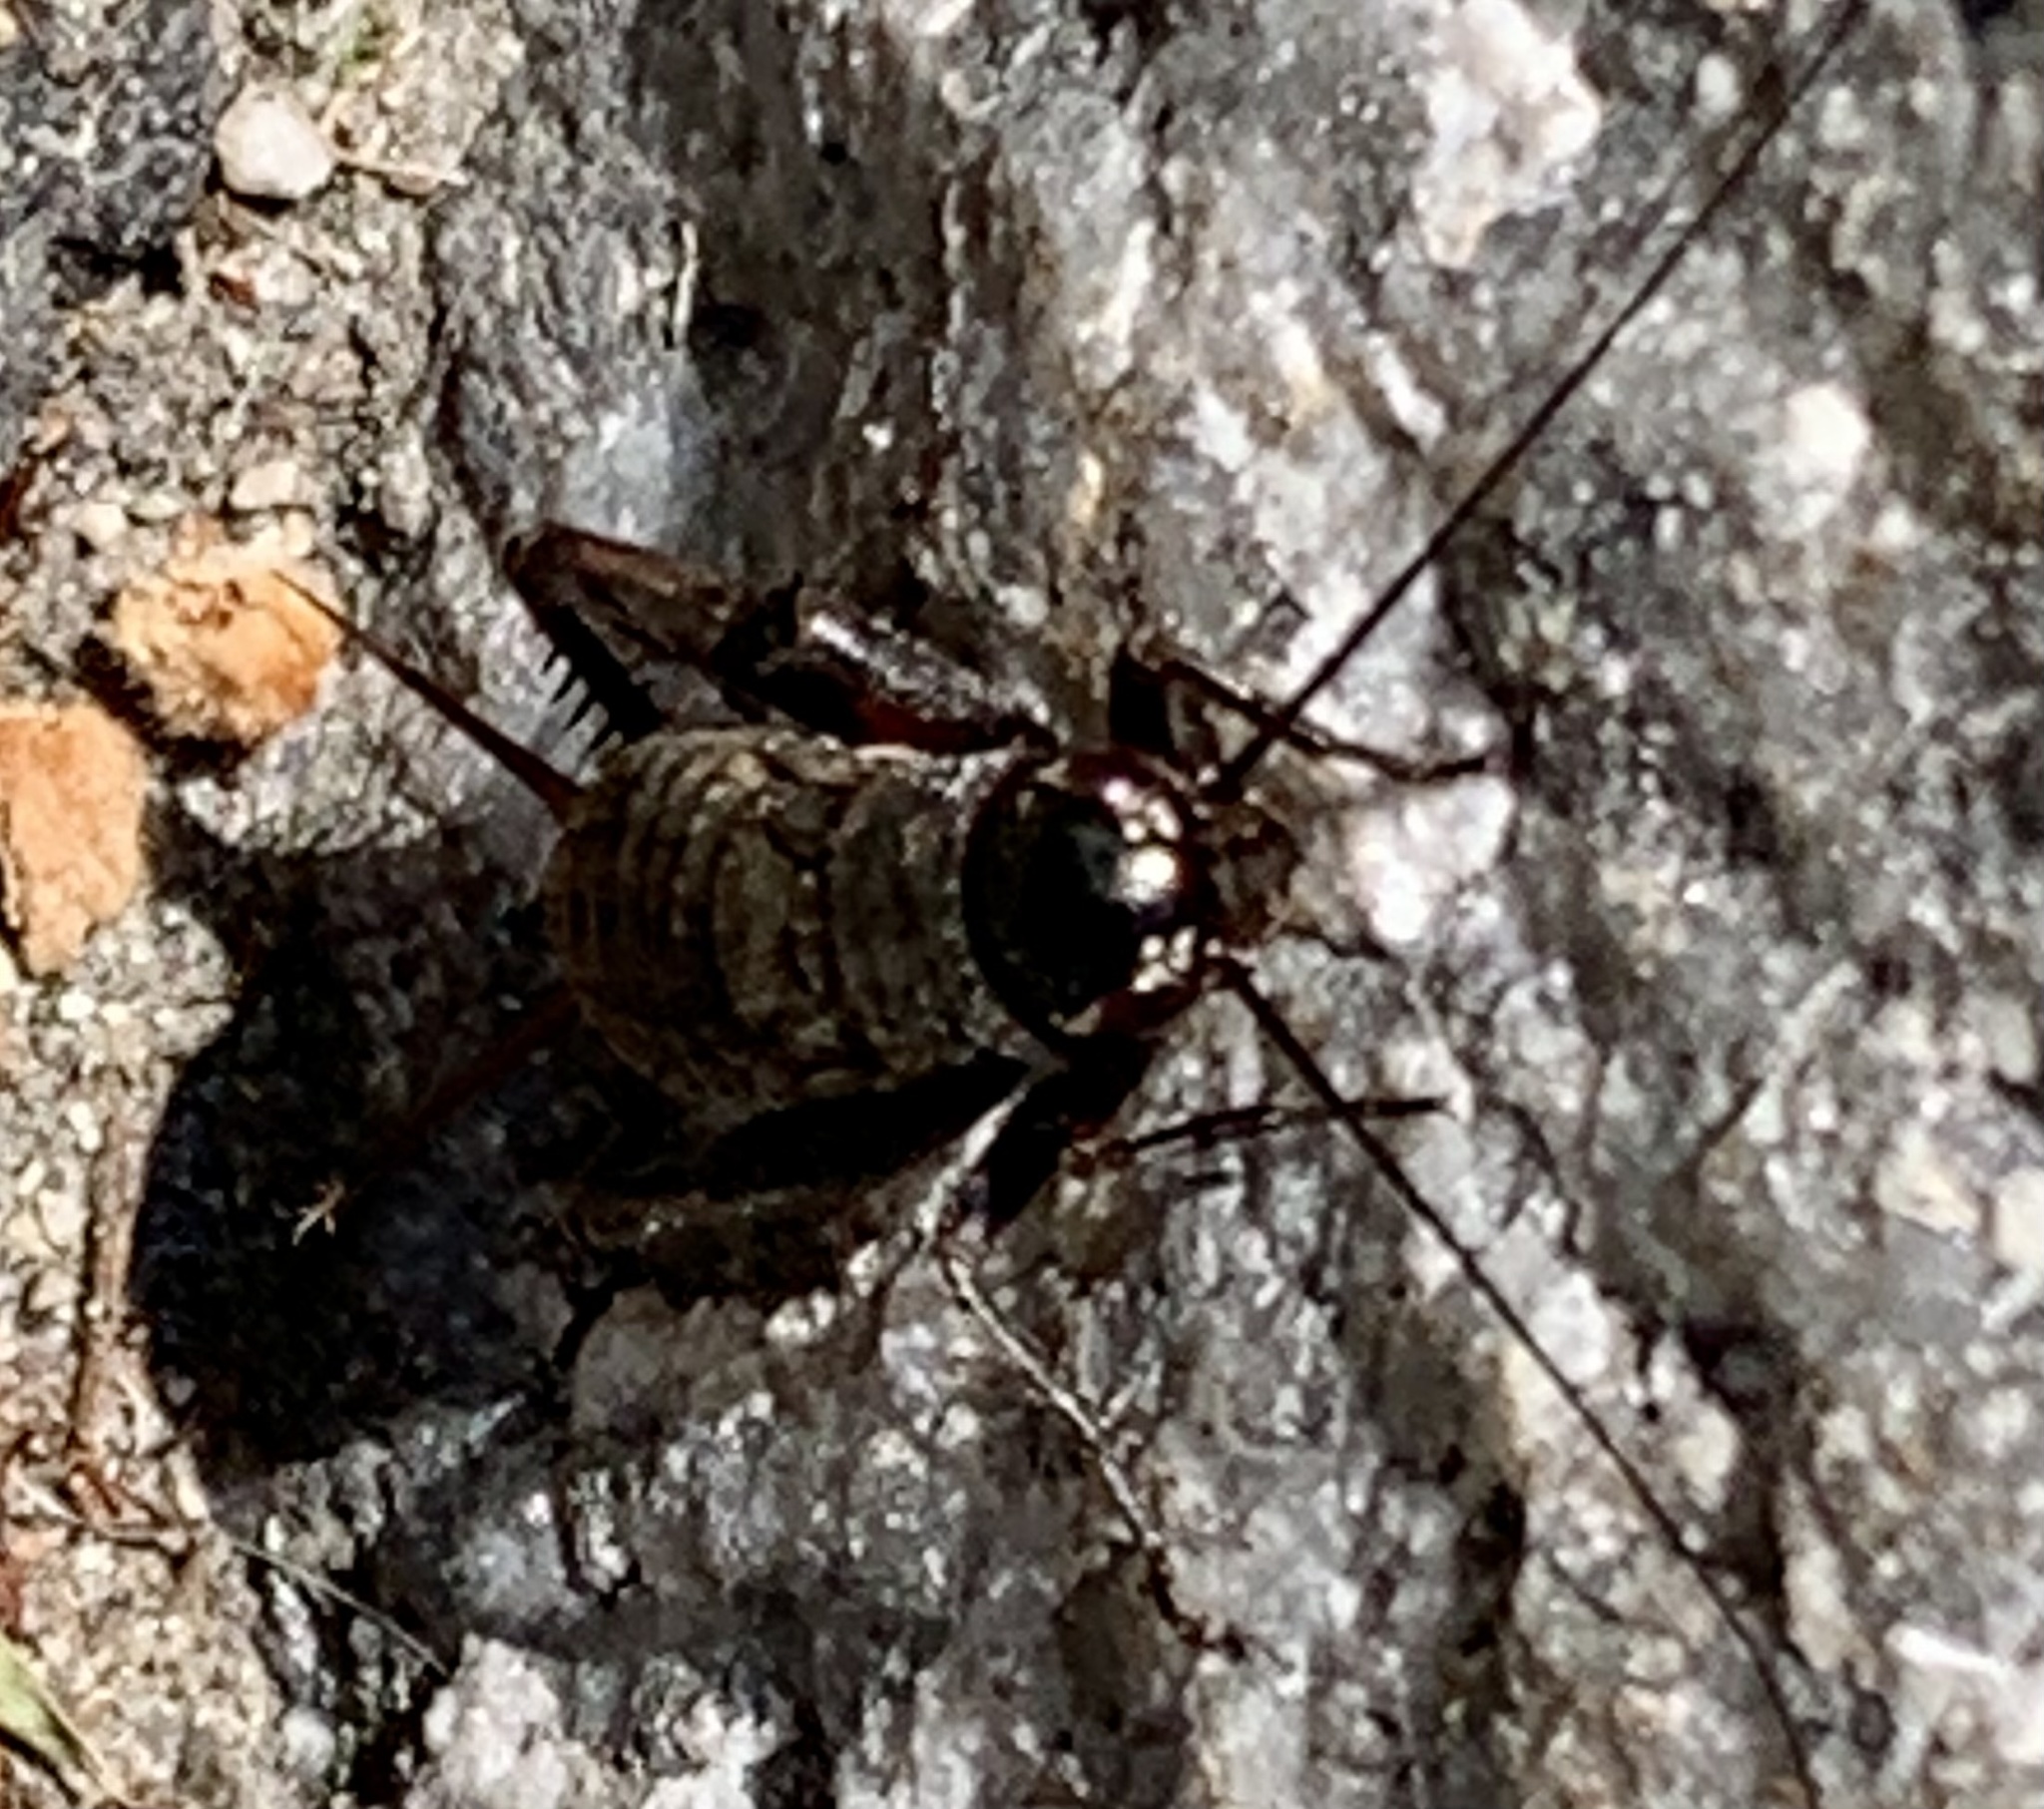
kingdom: Animalia
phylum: Arthropoda
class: Insecta
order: Orthoptera
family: Gryllidae
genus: Gryllus
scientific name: Gryllus pennsylvanicus
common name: Fall field cricket
